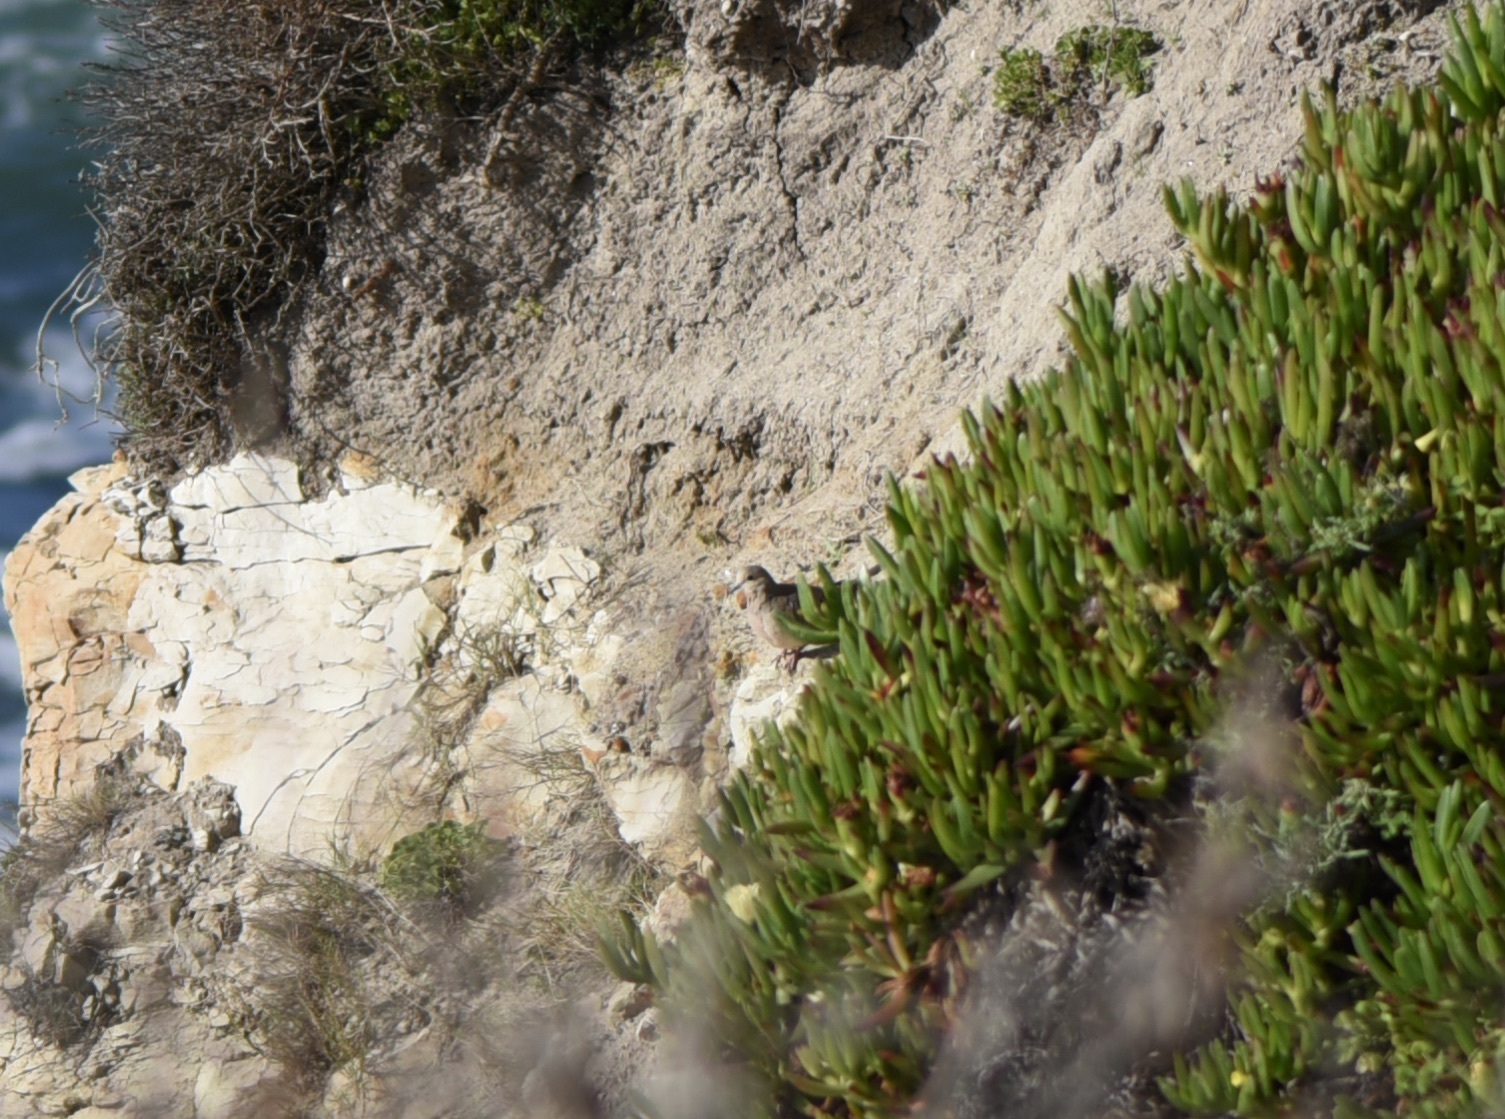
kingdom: Animalia
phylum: Chordata
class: Aves
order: Columbiformes
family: Columbidae
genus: Zenaida
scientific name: Zenaida macroura
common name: Mourning dove
